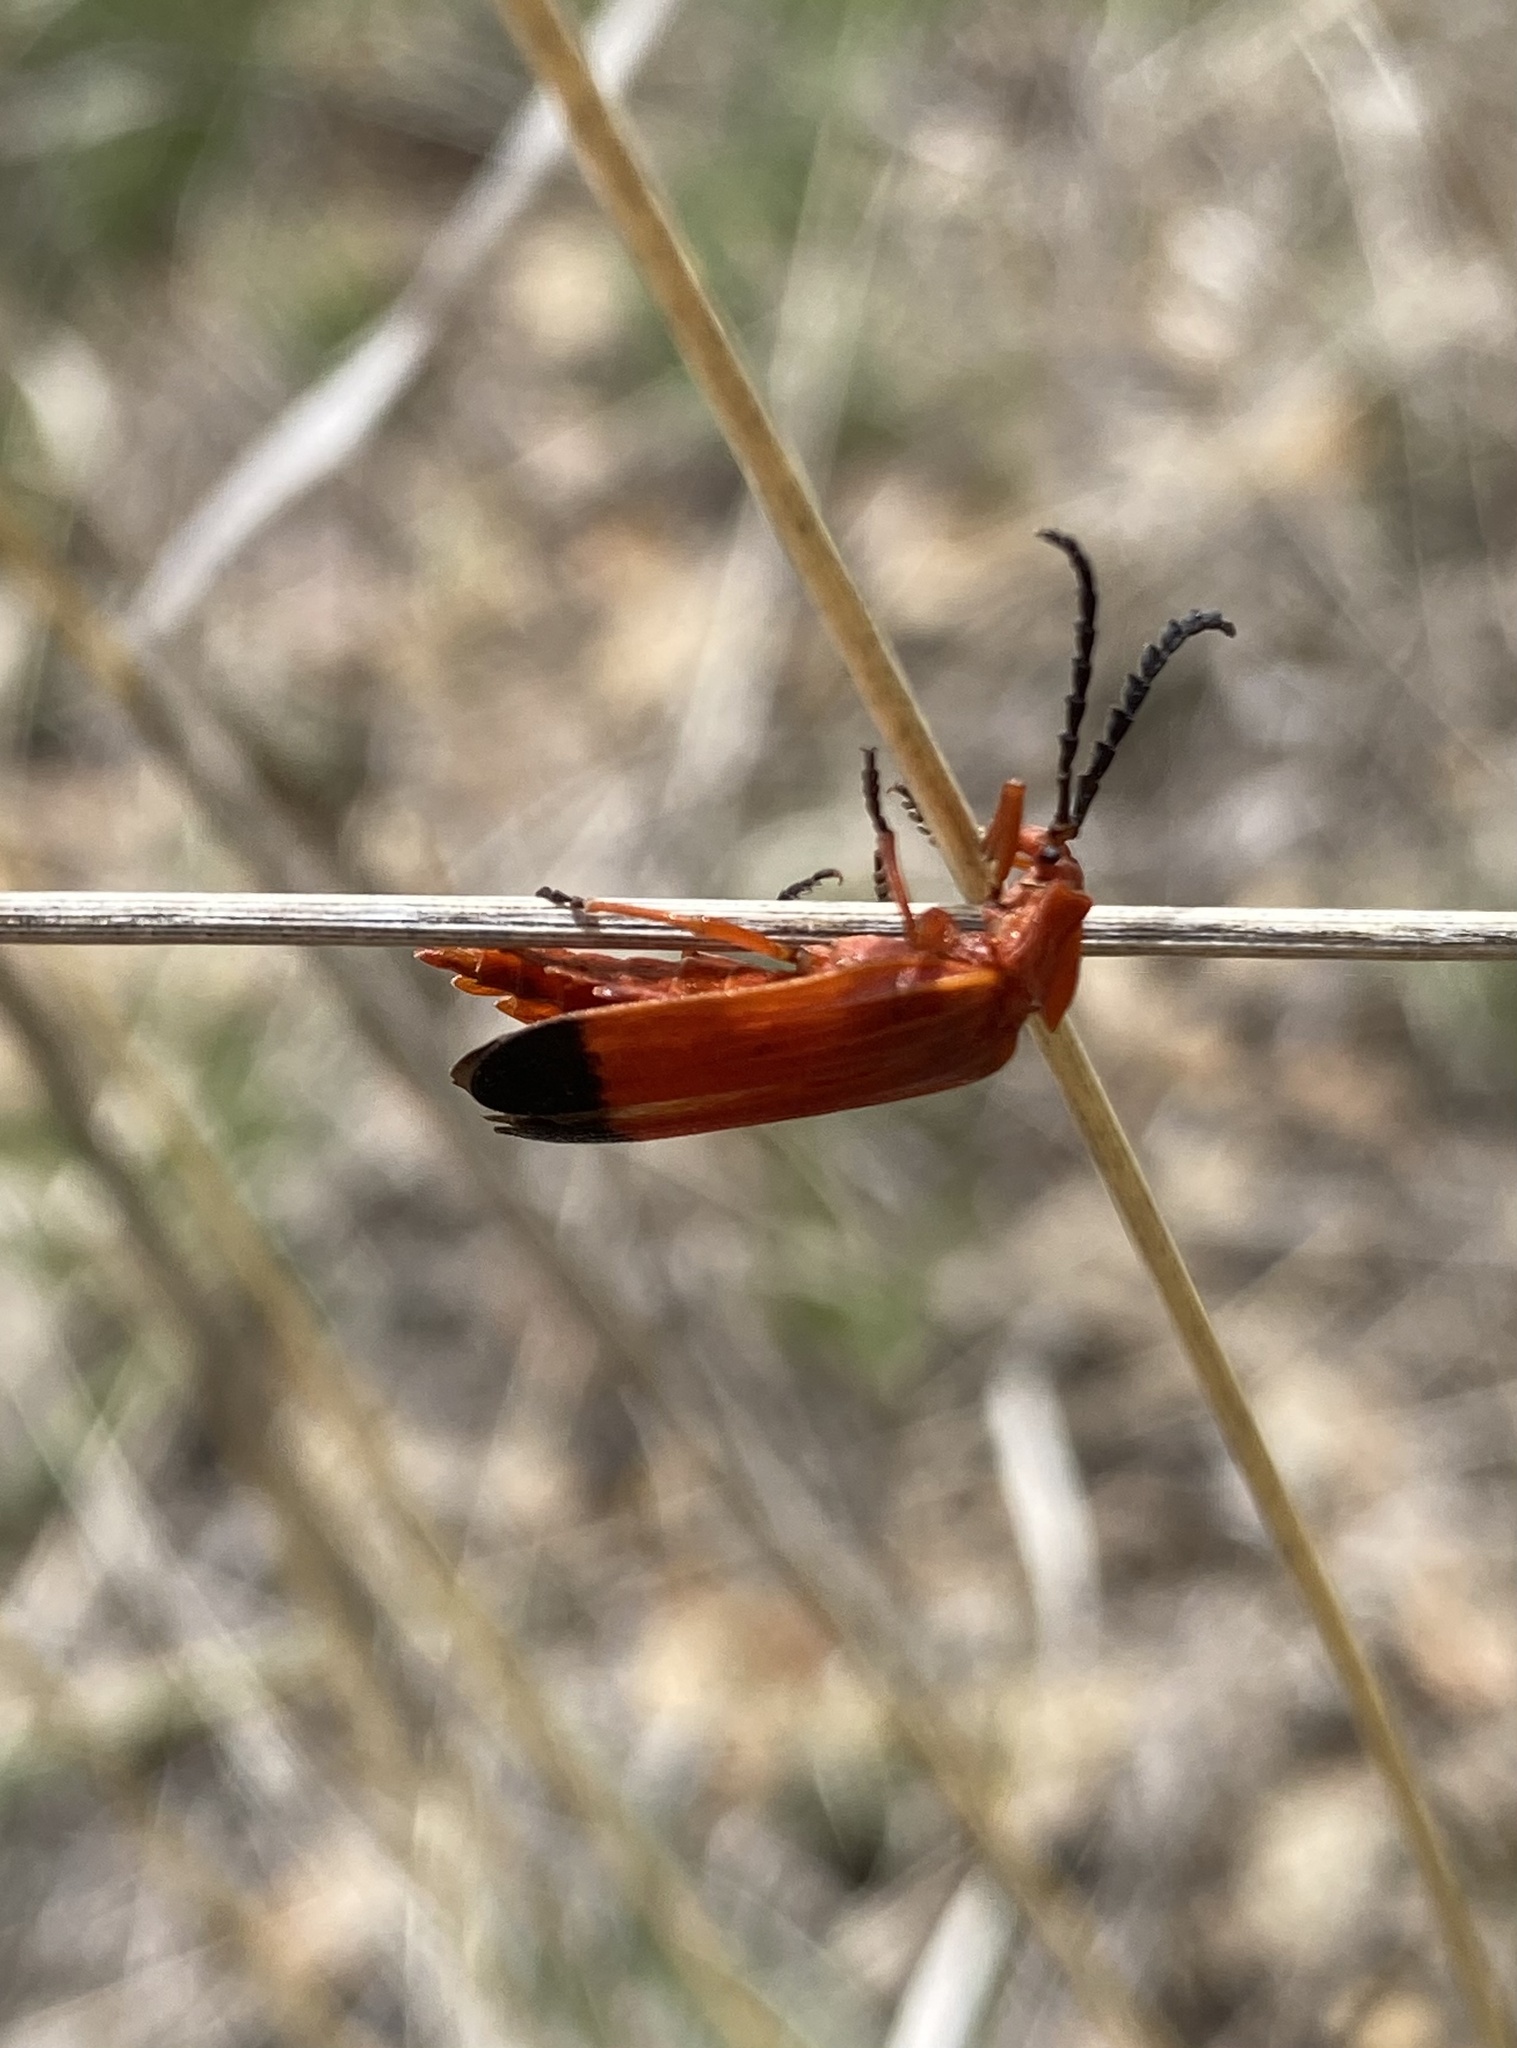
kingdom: Animalia
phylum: Arthropoda
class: Insecta
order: Coleoptera
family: Lycidae
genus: Lycus
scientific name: Lycus sanguineus
